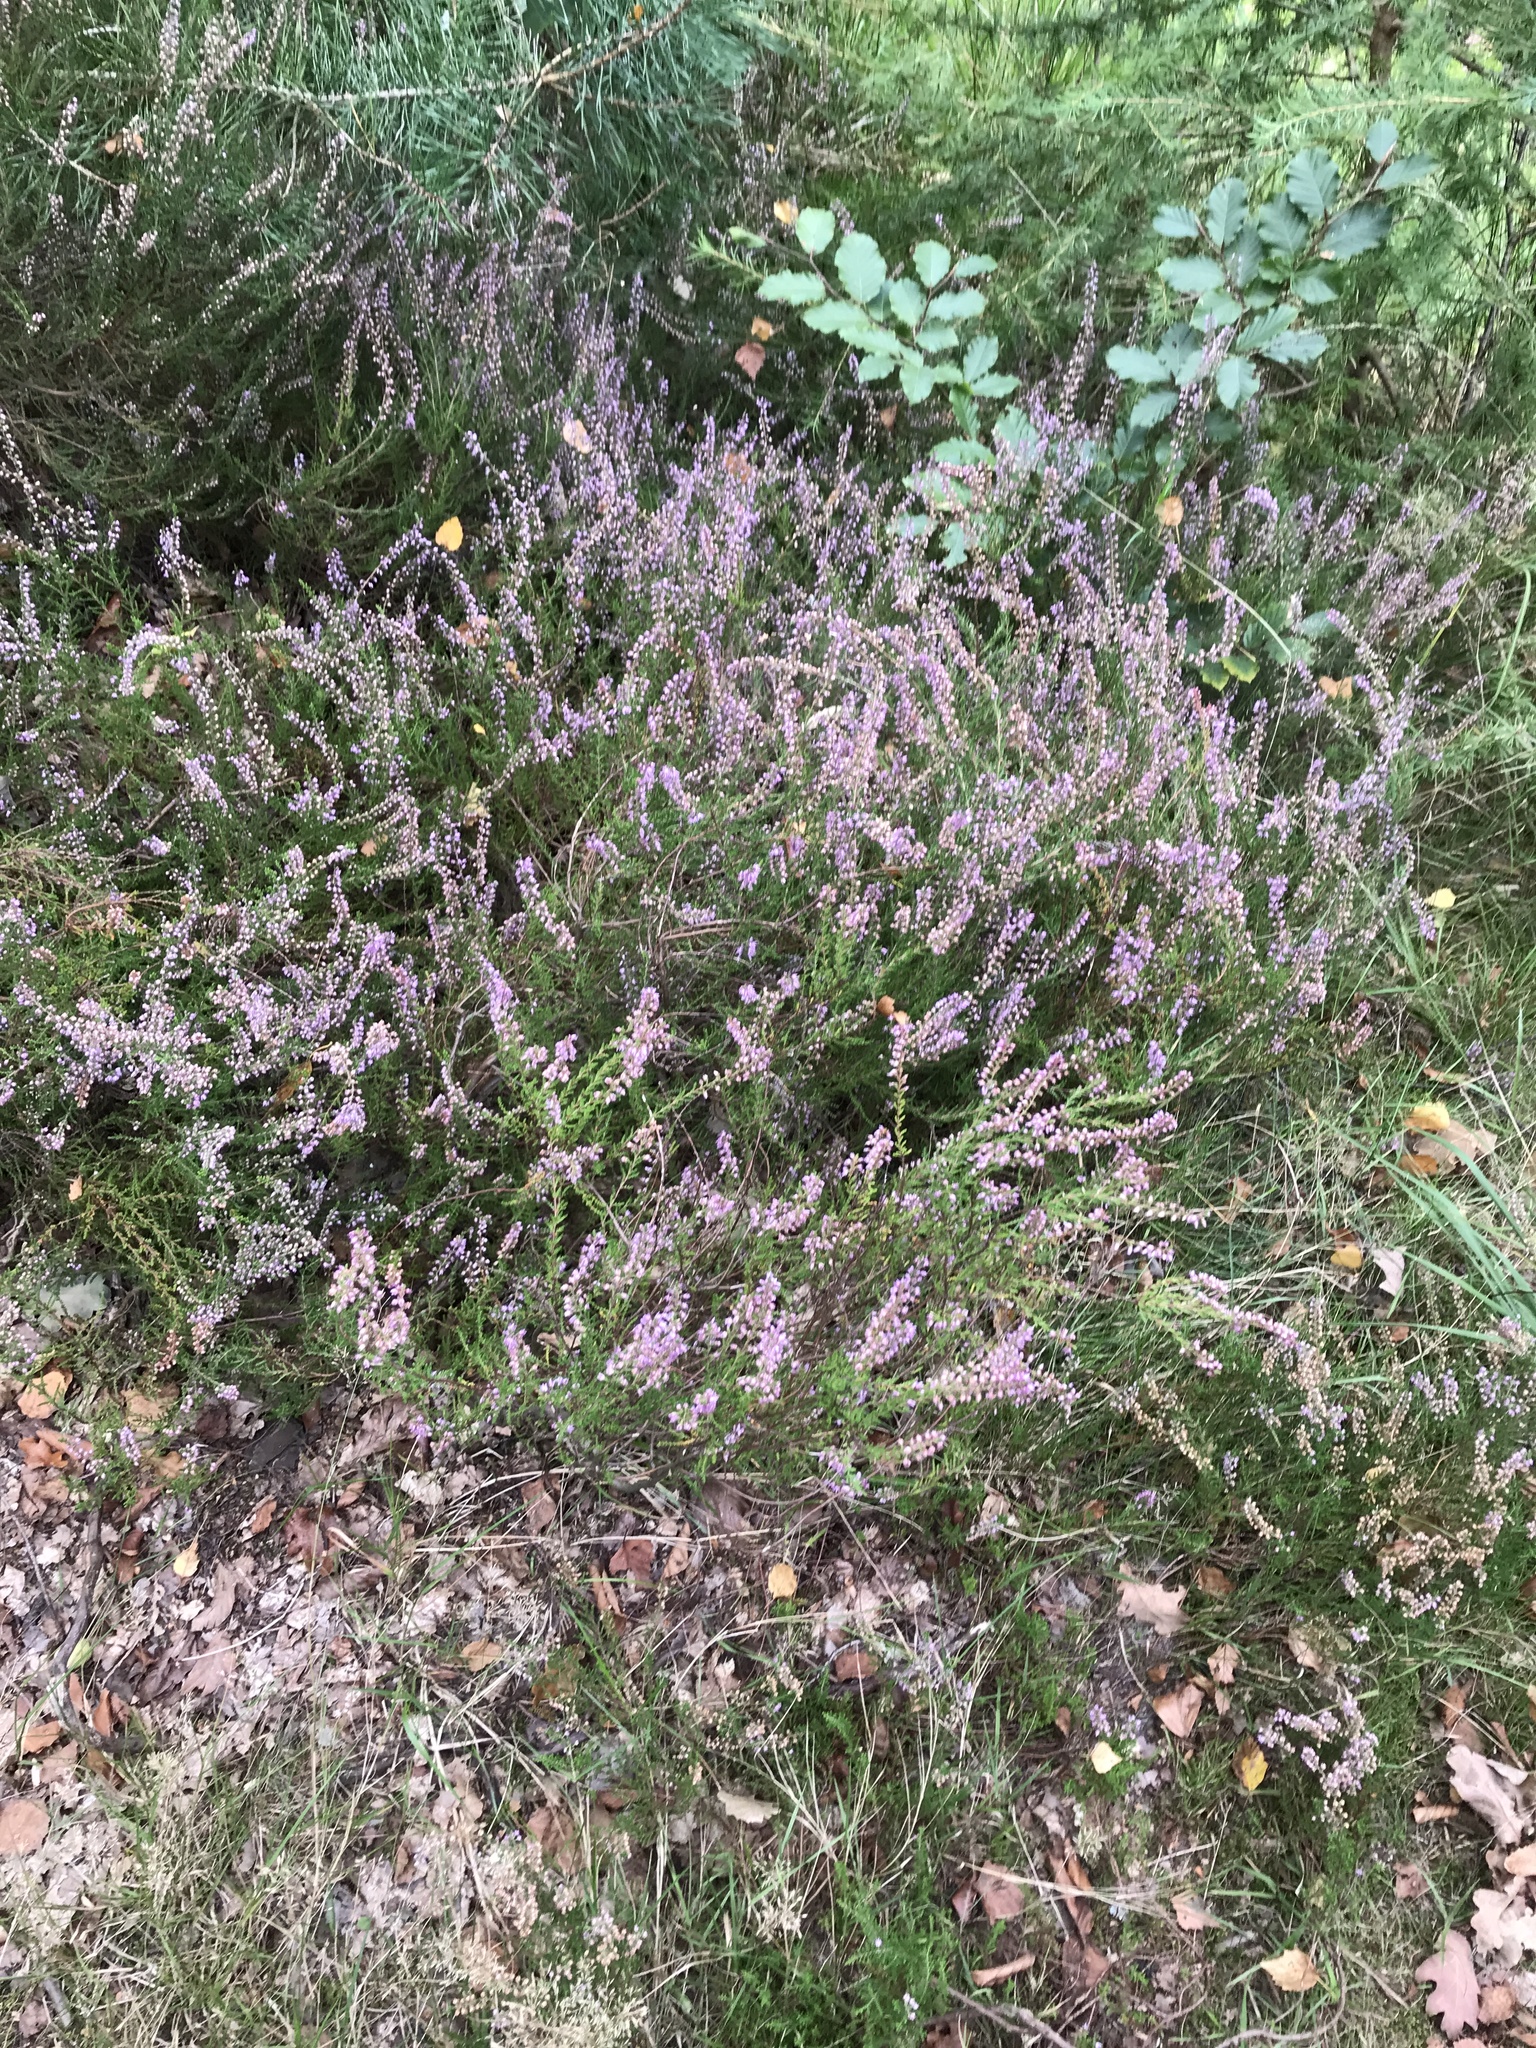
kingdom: Plantae
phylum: Tracheophyta
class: Magnoliopsida
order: Ericales
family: Ericaceae
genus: Calluna
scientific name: Calluna vulgaris
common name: Heather
